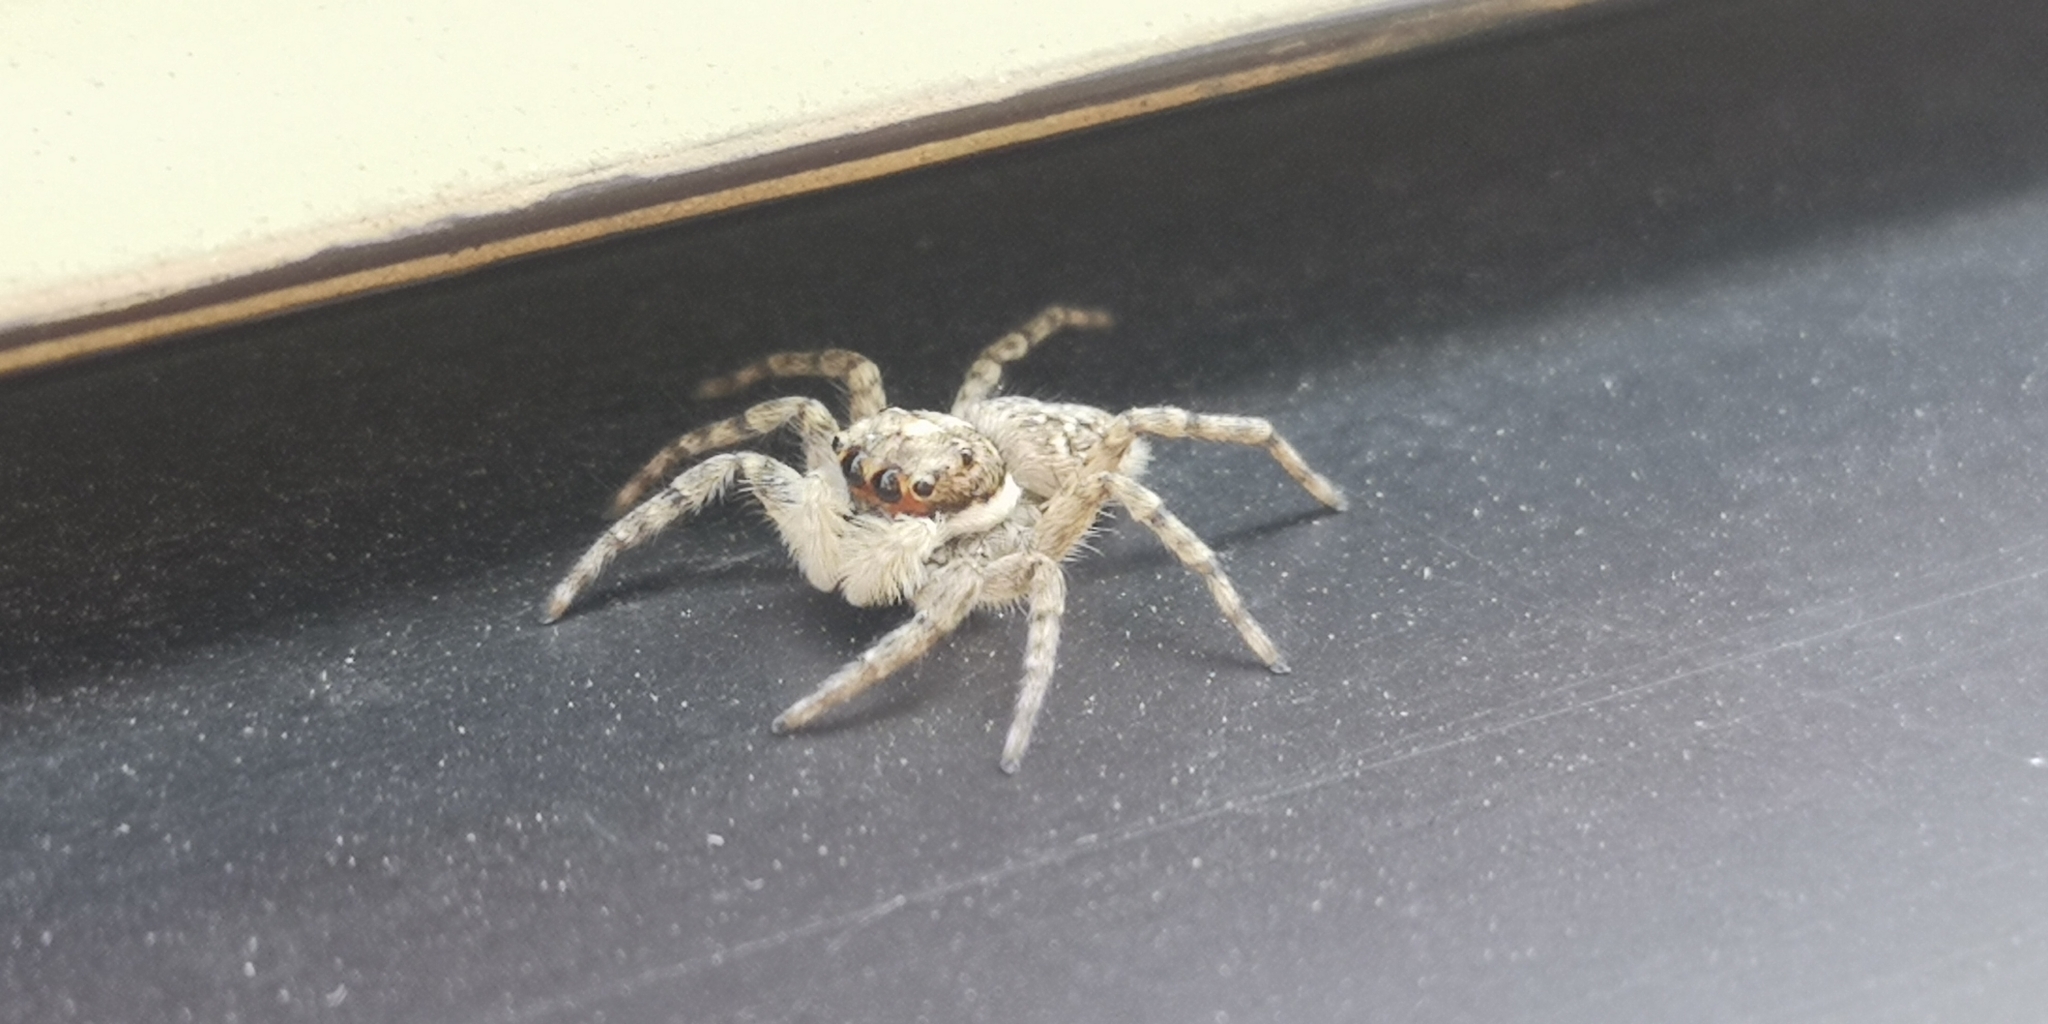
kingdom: Animalia
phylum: Arthropoda
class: Arachnida
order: Araneae
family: Salticidae
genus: Menemerus
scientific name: Menemerus semilimbatus
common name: Jumping spider
